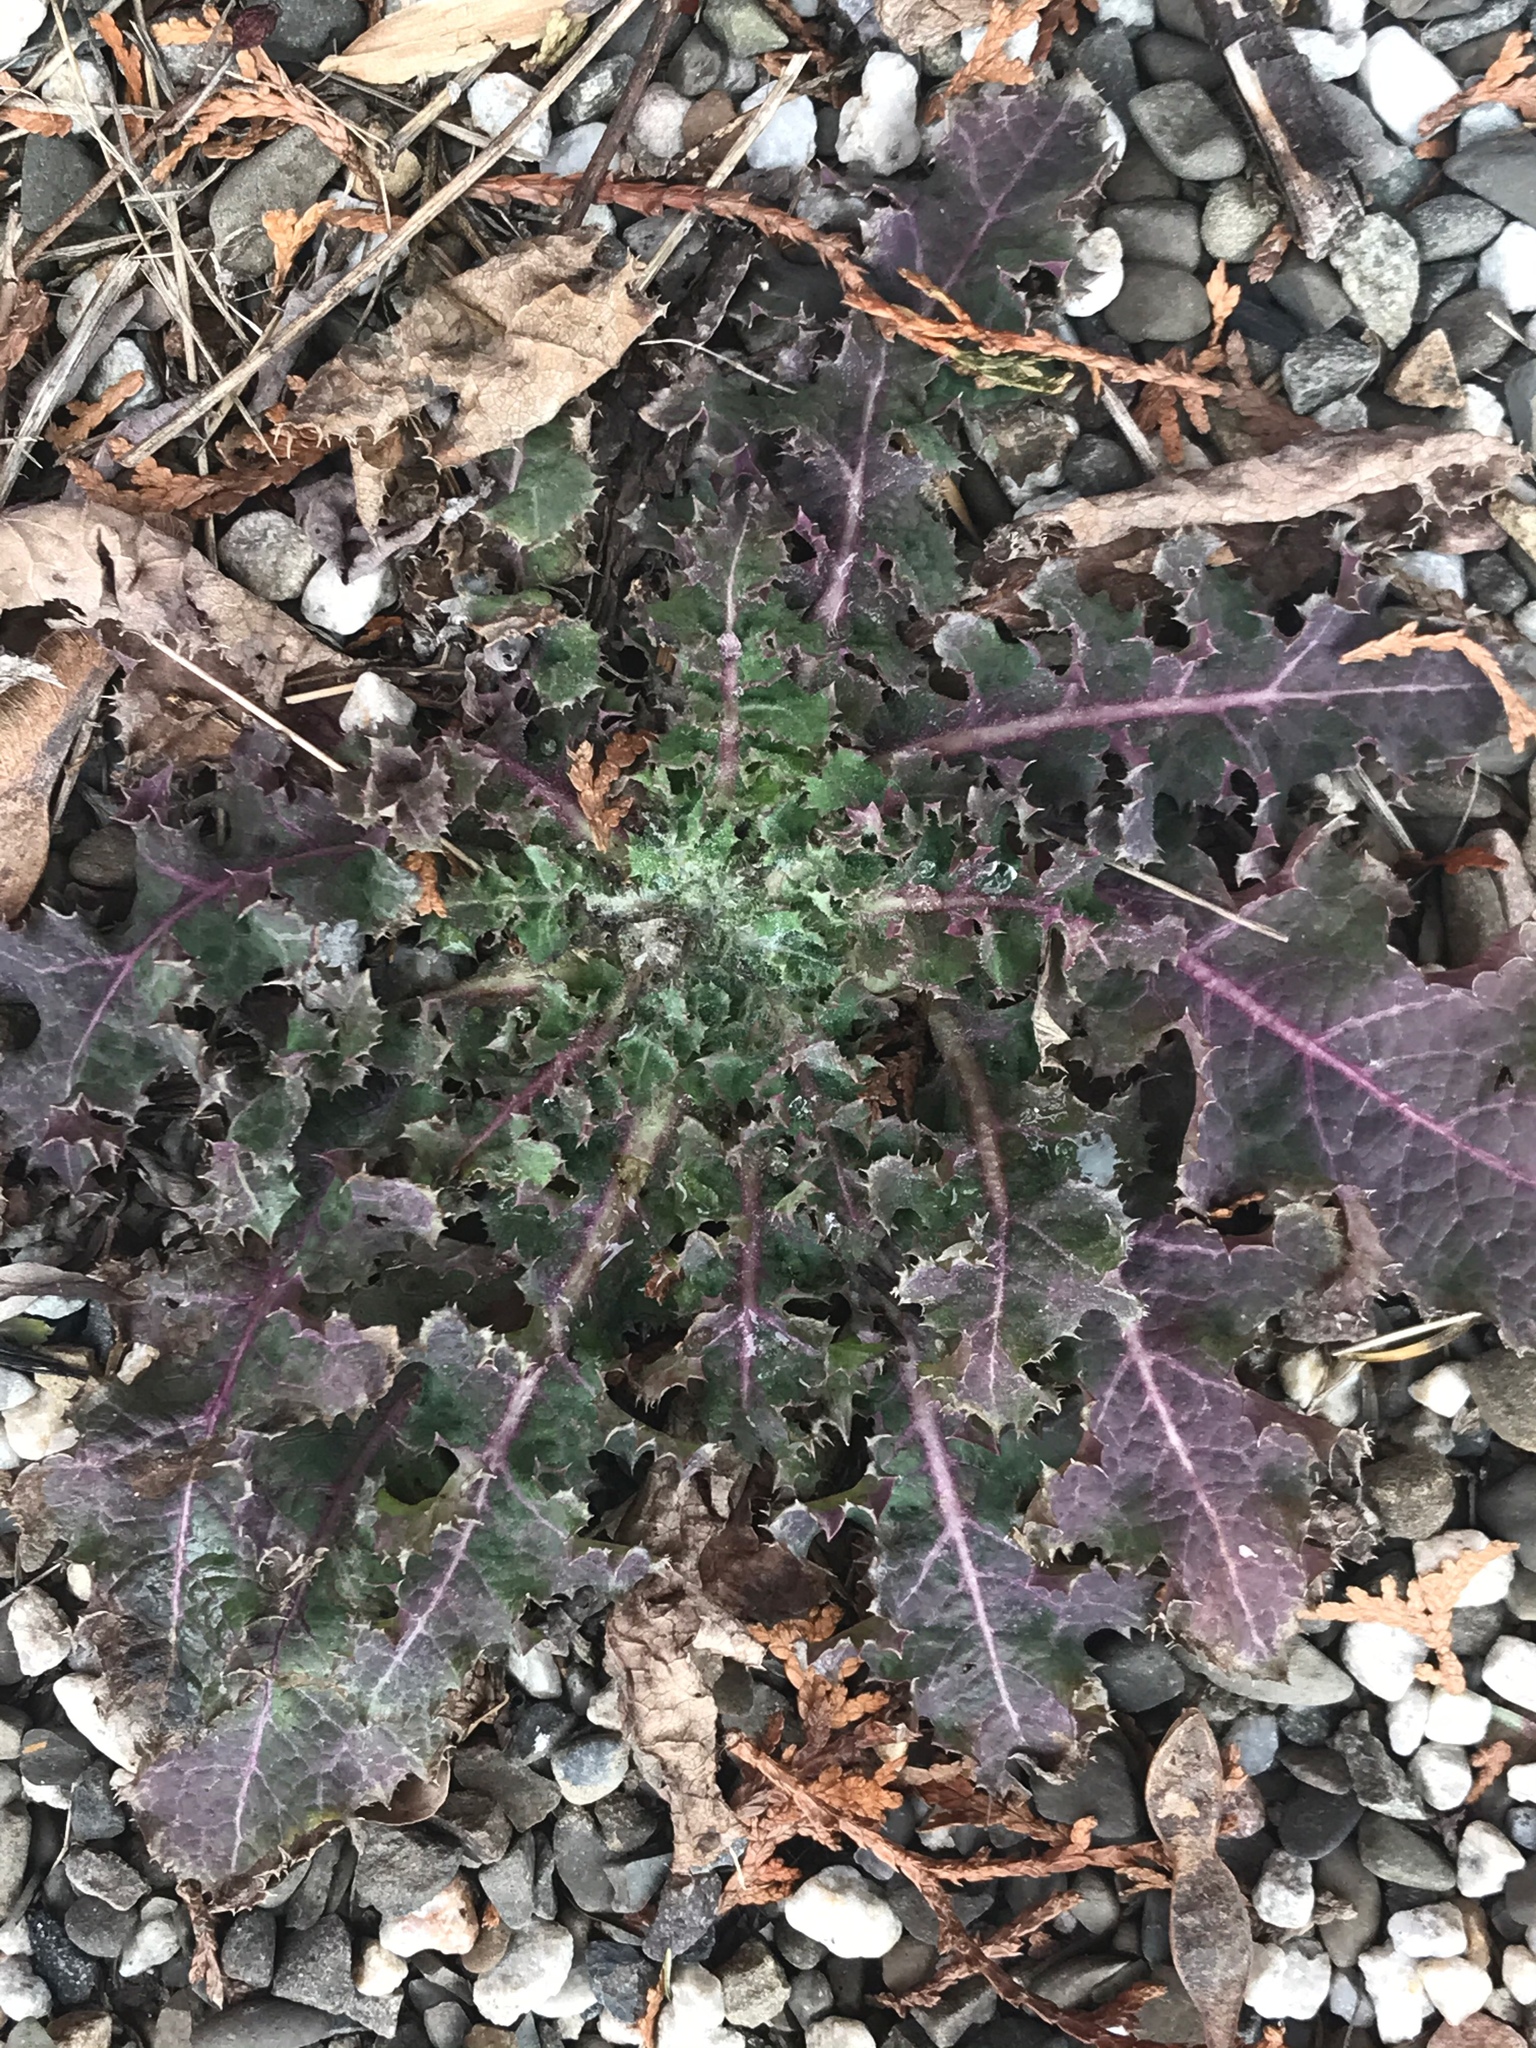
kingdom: Plantae
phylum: Tracheophyta
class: Magnoliopsida
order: Asterales
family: Asteraceae
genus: Sonchus
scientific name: Sonchus asper
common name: Prickly sow-thistle
